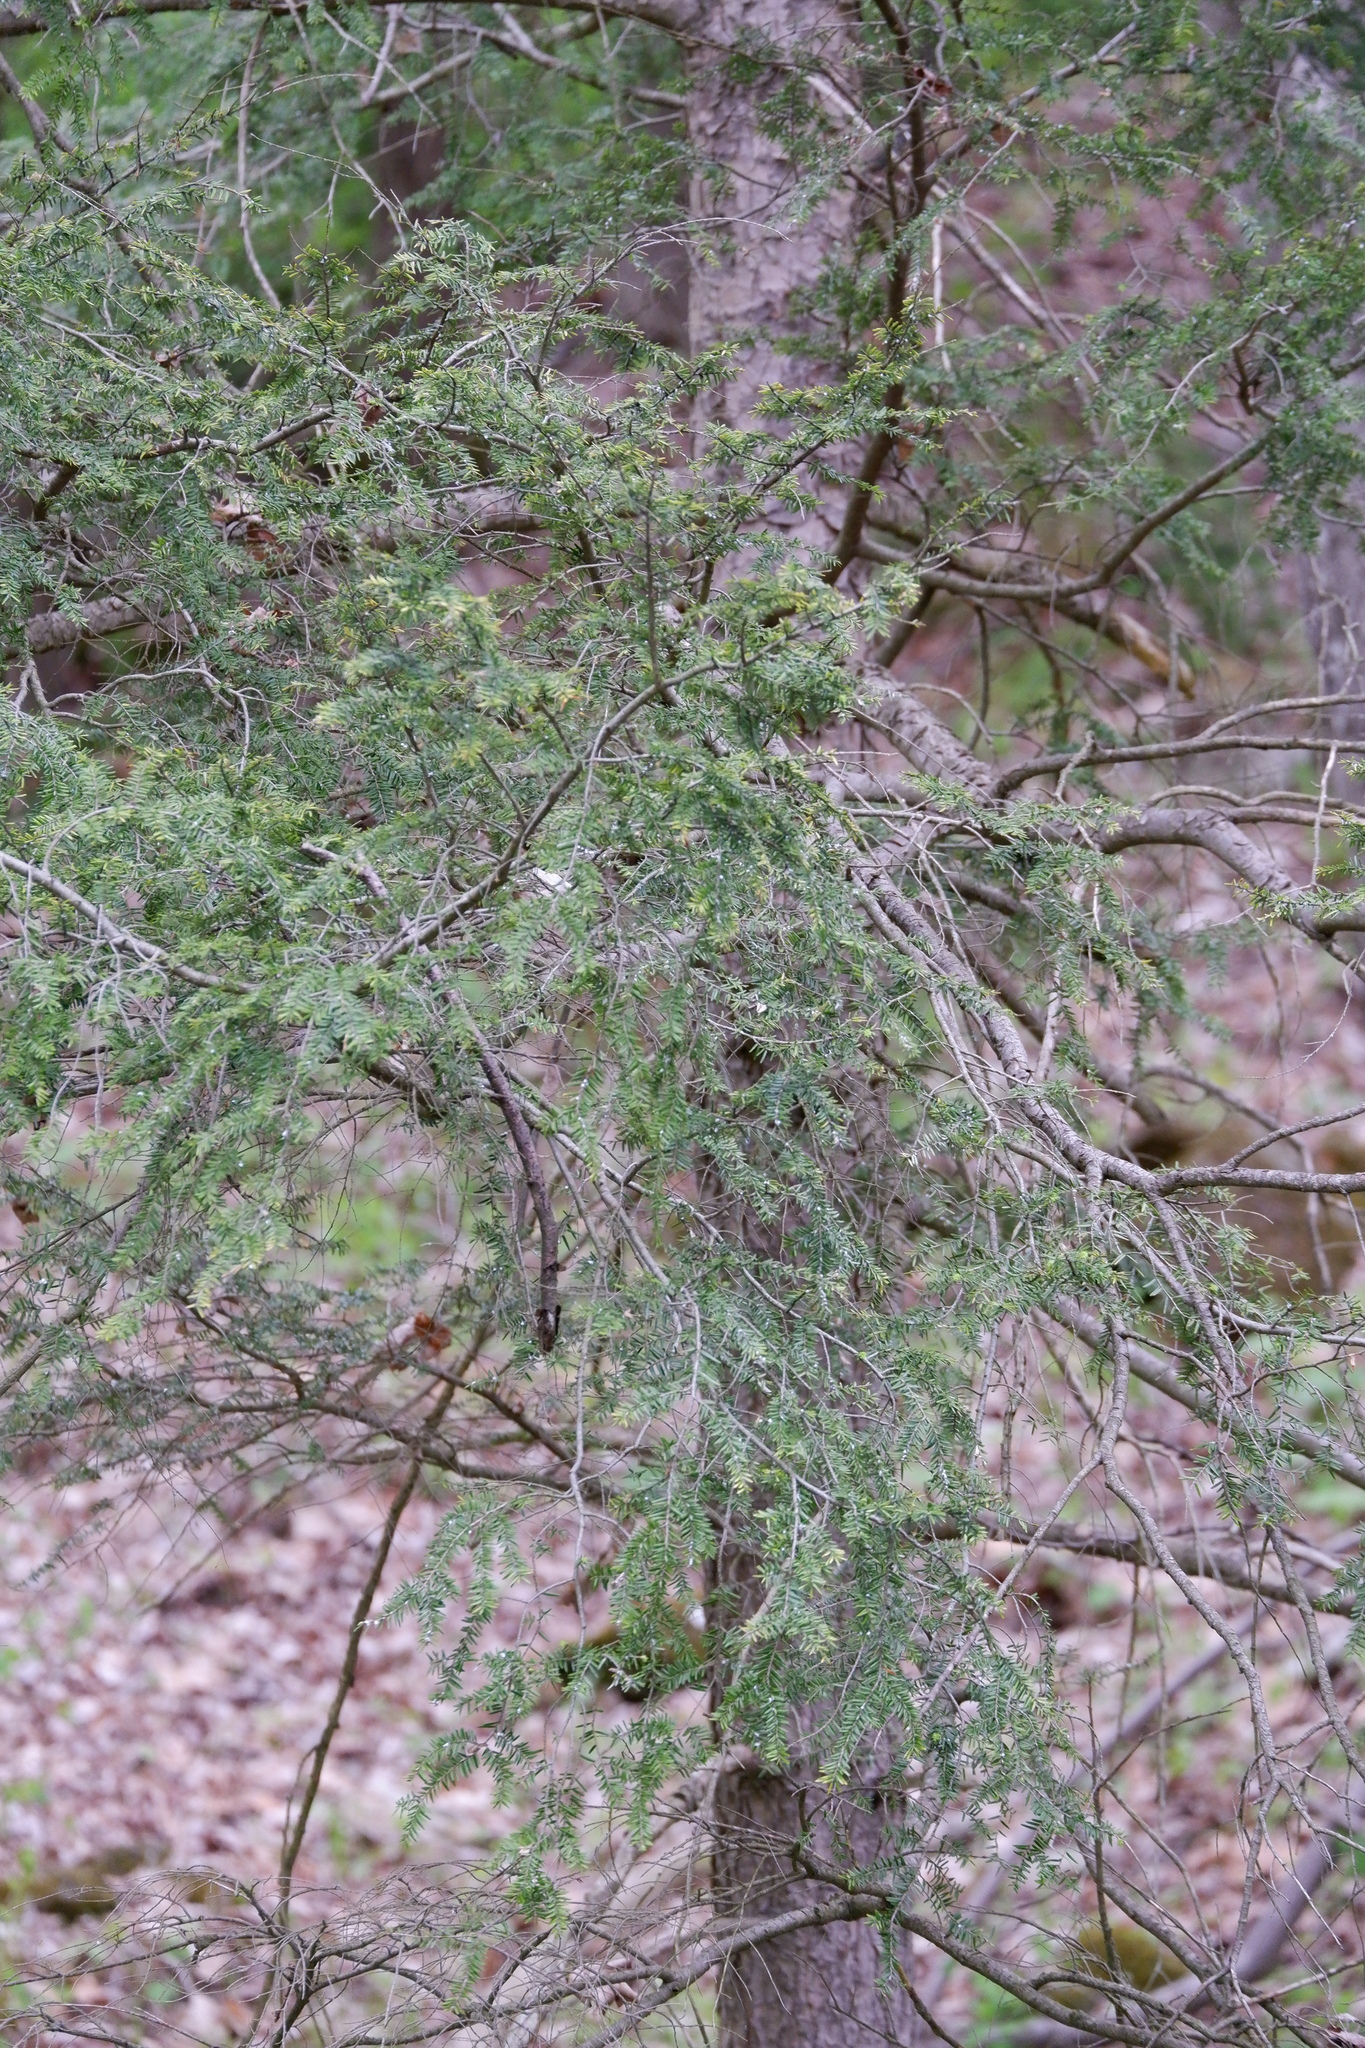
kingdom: Plantae
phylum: Tracheophyta
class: Pinopsida
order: Pinales
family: Pinaceae
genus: Tsuga
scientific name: Tsuga canadensis
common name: Eastern hemlock
